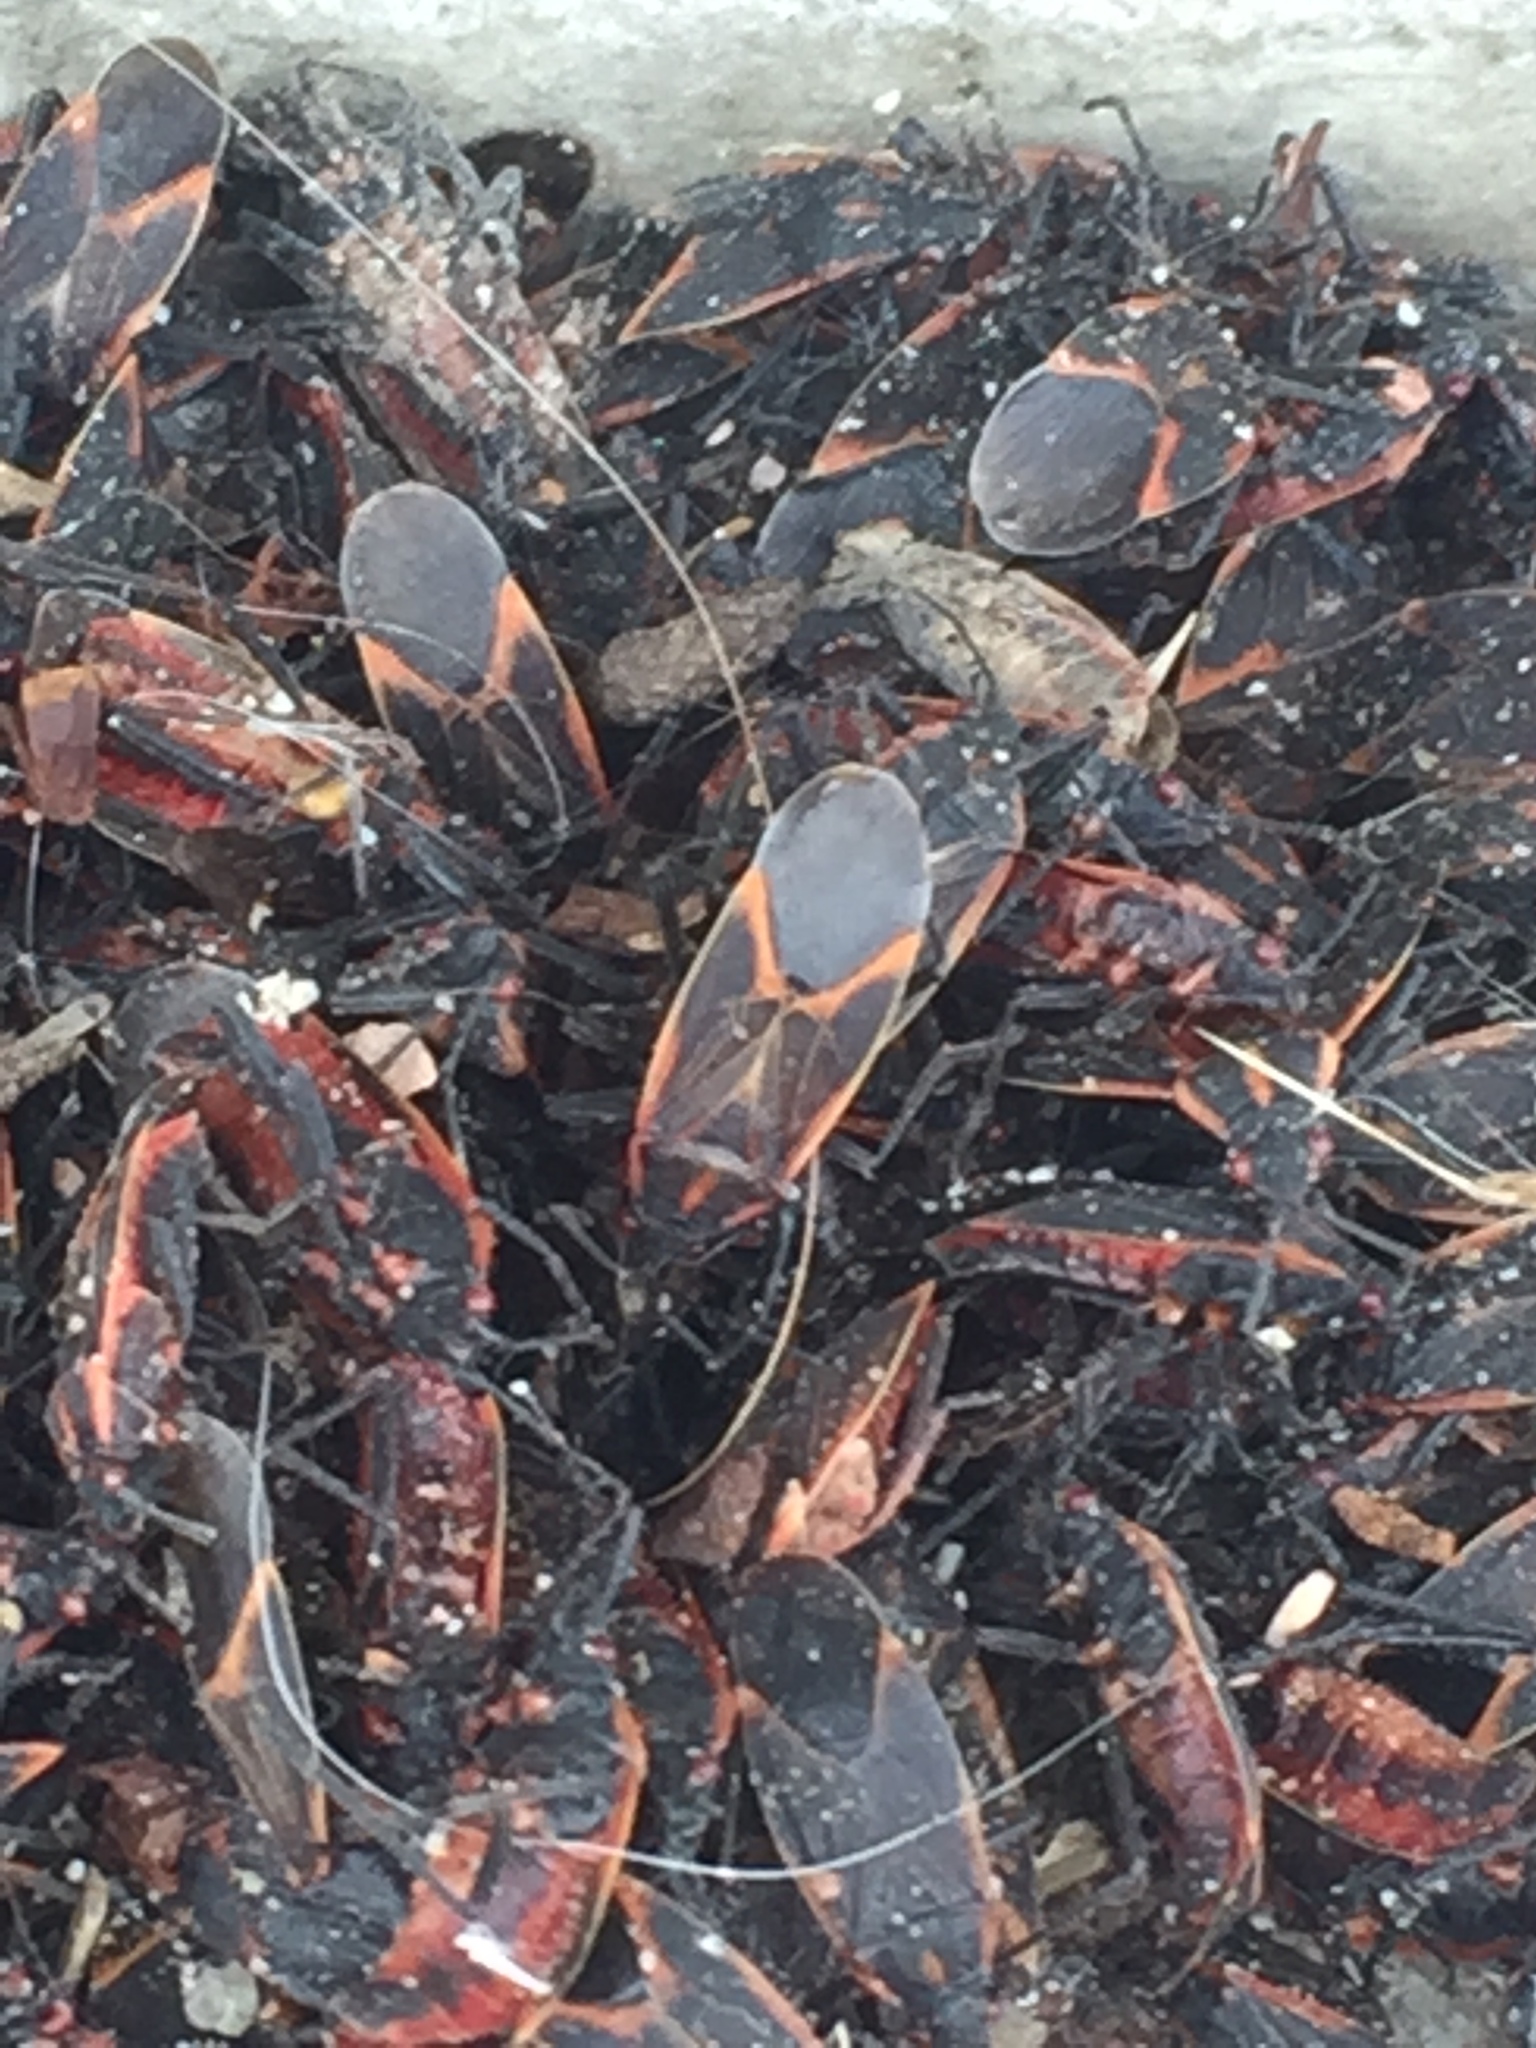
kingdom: Animalia
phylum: Arthropoda
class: Insecta
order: Hemiptera
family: Rhopalidae
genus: Boisea
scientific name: Boisea trivittata
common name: Boxelder bug
